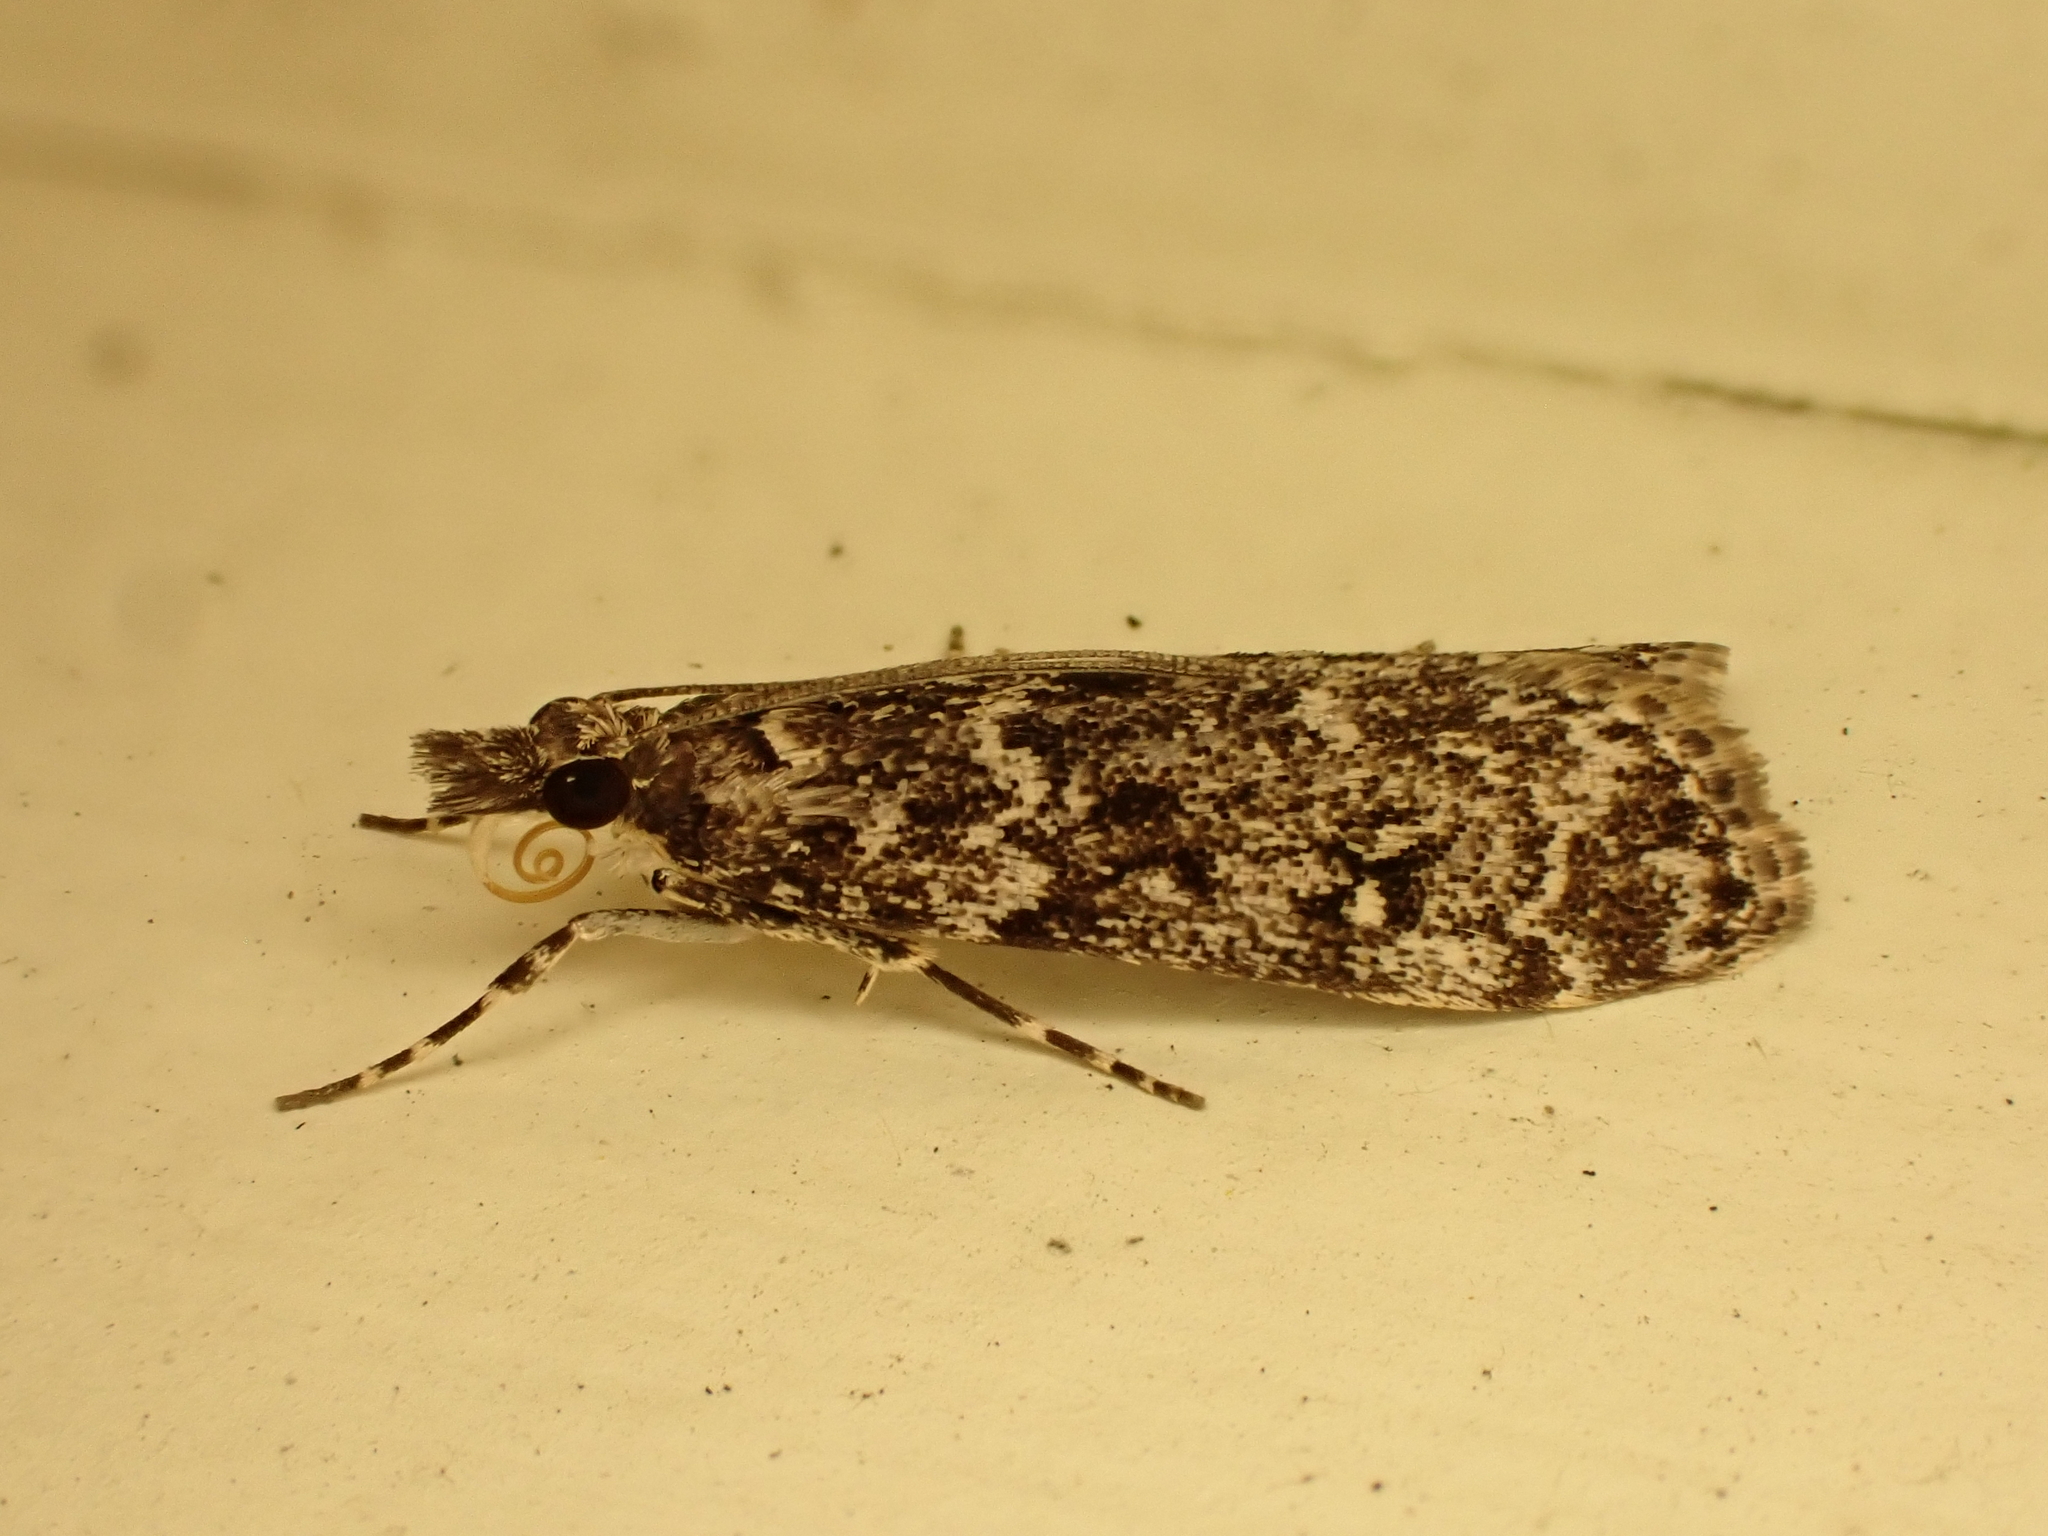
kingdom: Animalia
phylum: Arthropoda
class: Insecta
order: Lepidoptera
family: Crambidae
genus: Eudonia
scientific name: Eudonia philerga
